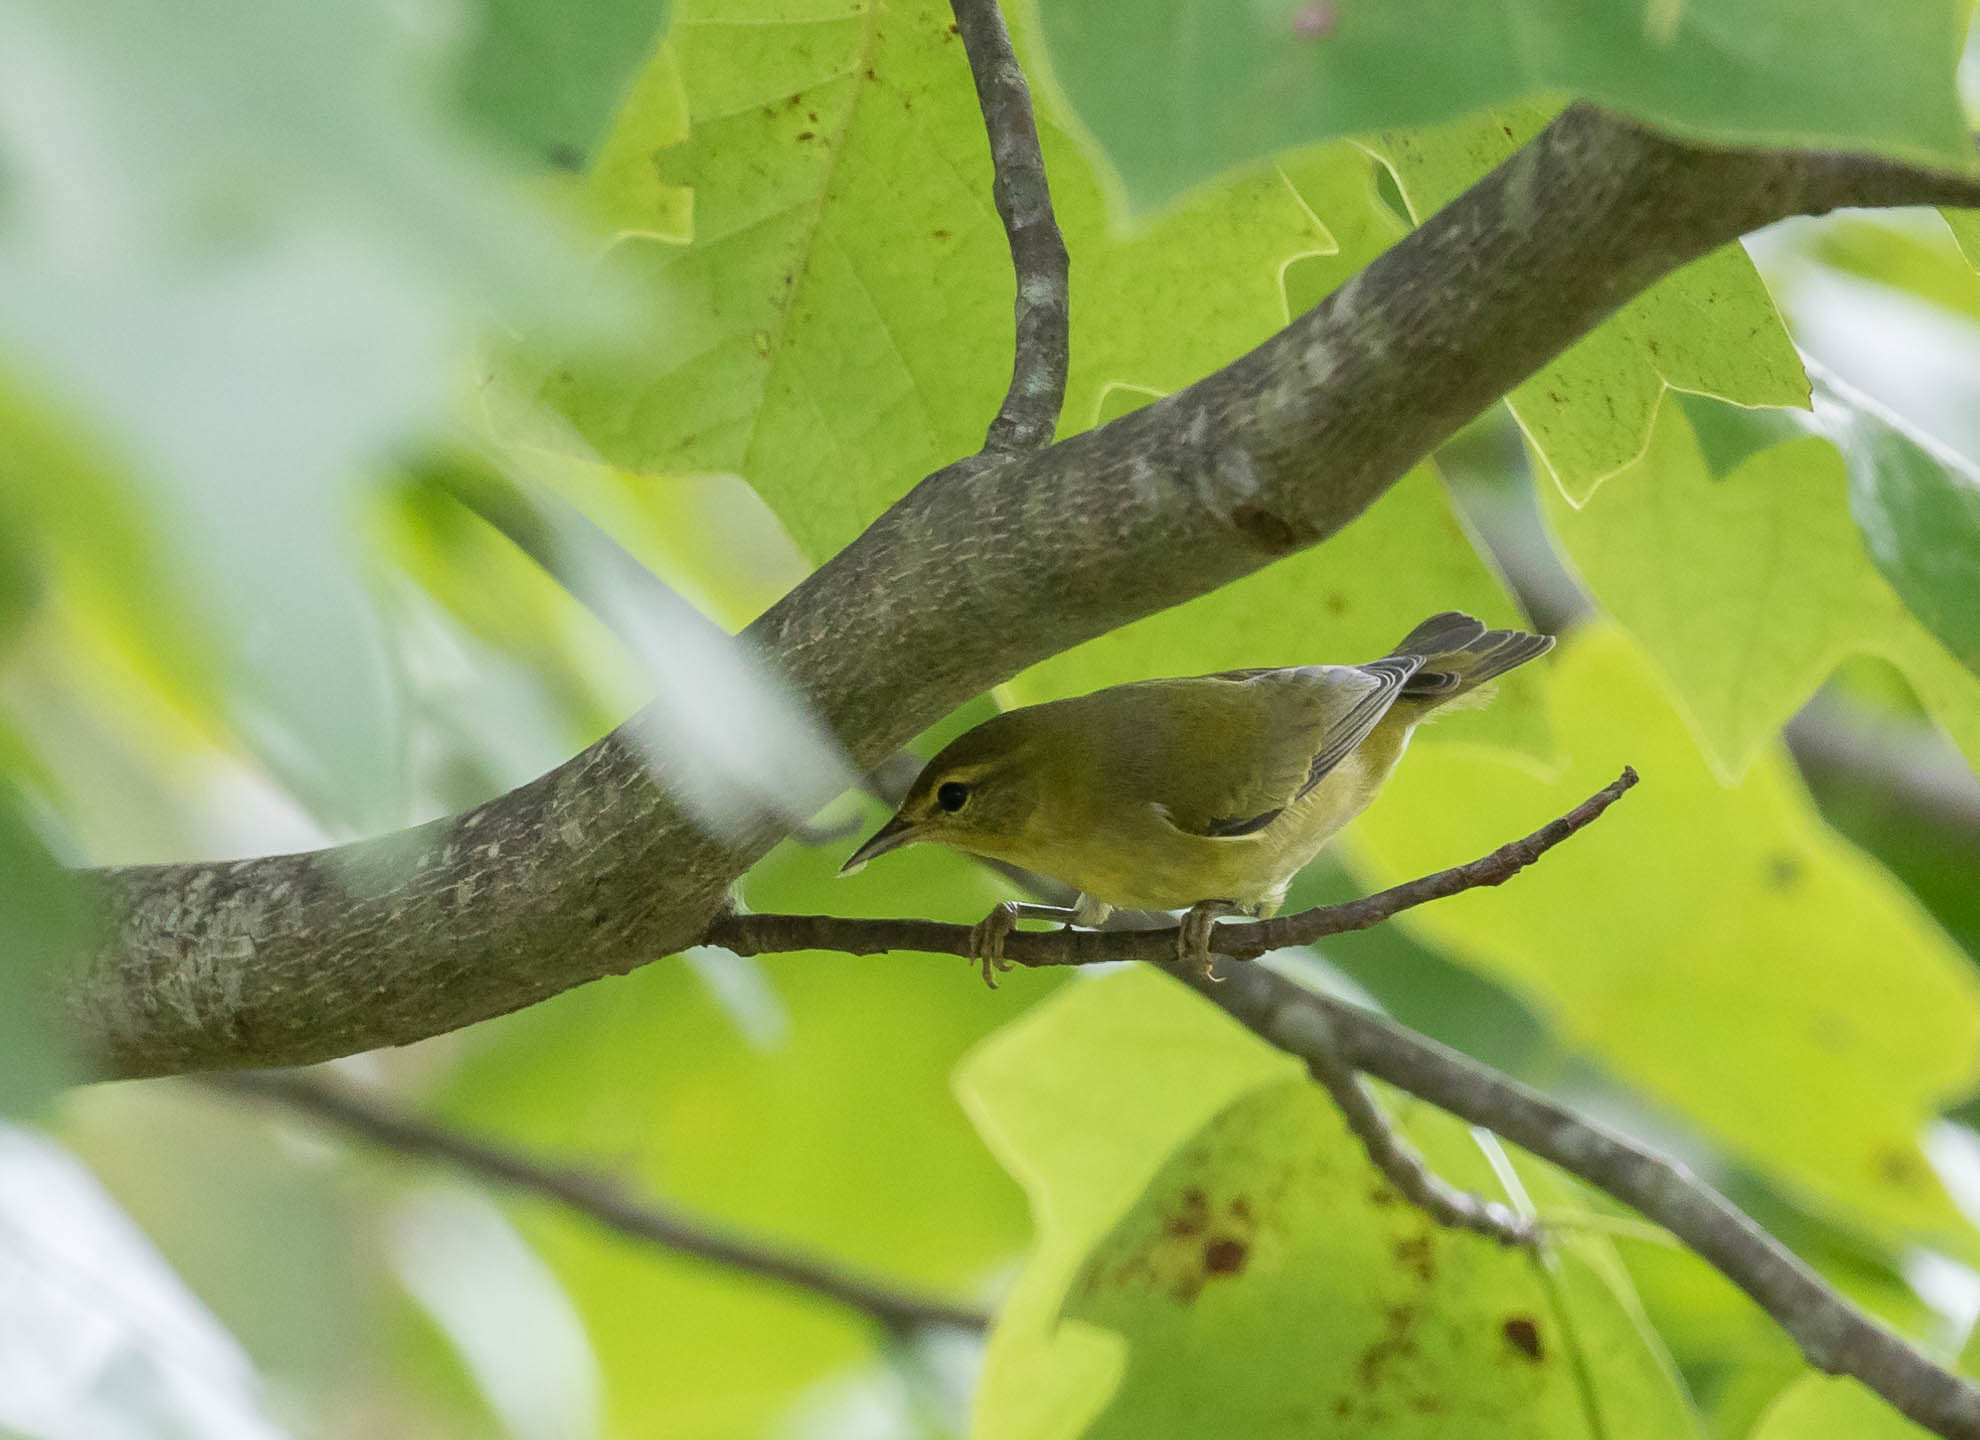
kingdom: Animalia
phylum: Chordata
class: Aves
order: Passeriformes
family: Parulidae
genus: Leiothlypis
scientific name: Leiothlypis peregrina
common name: Tennessee warbler
